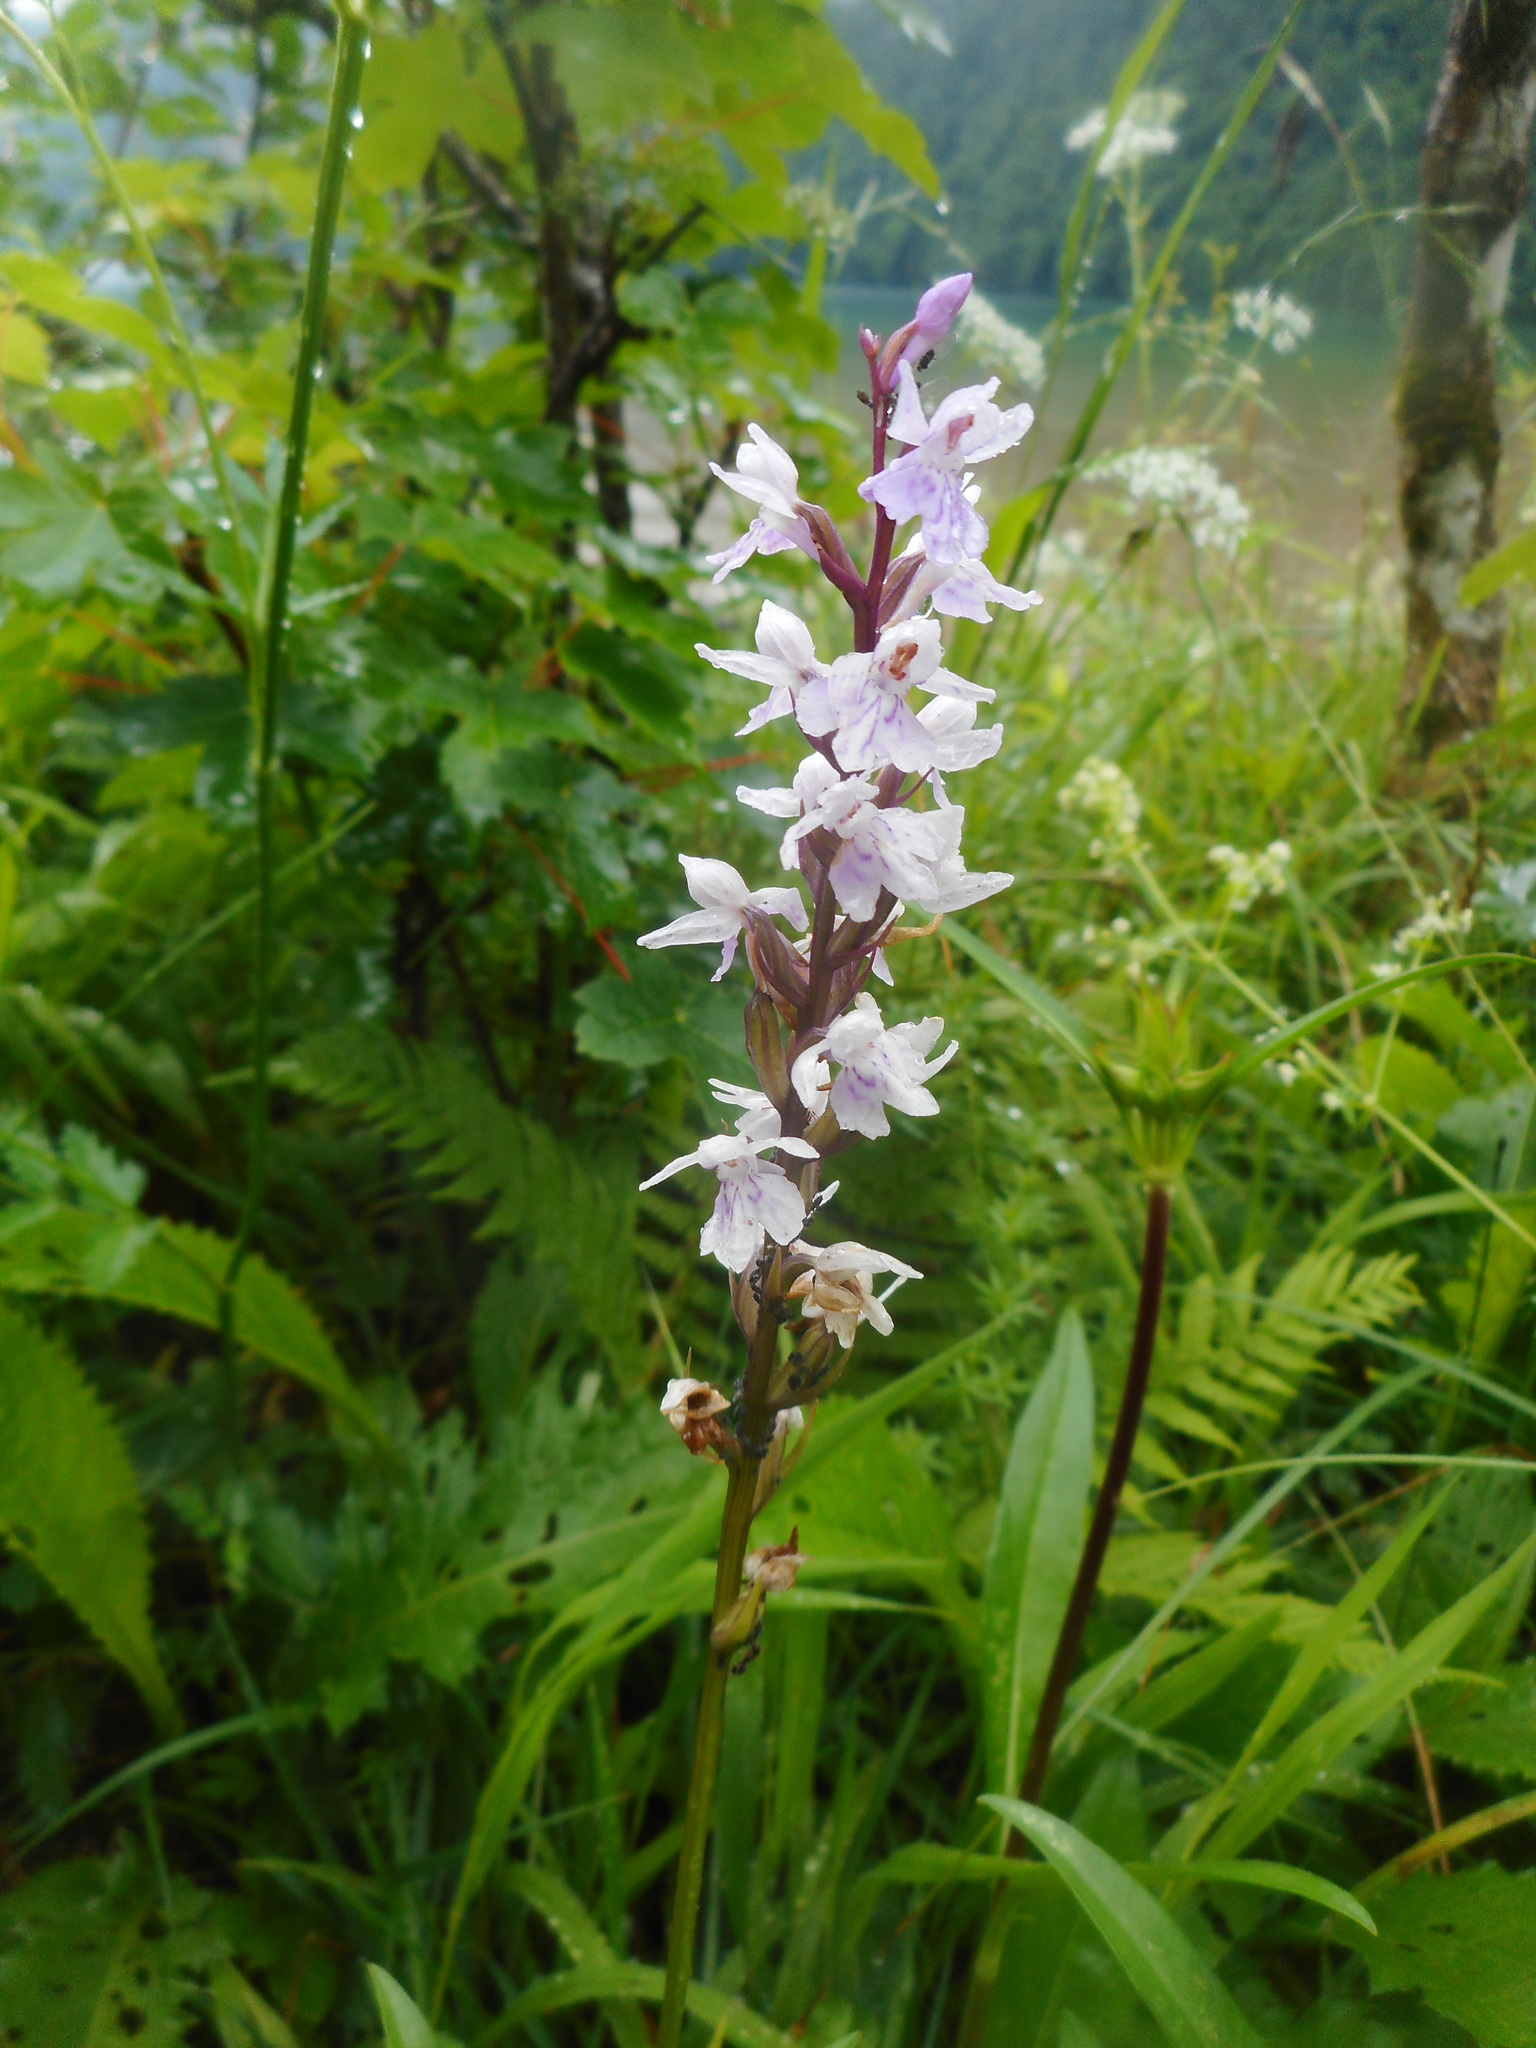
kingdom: Plantae
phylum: Tracheophyta
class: Liliopsida
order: Asparagales
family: Orchidaceae
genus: Dactylorhiza
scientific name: Dactylorhiza maculata
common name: Heath spotted-orchid
